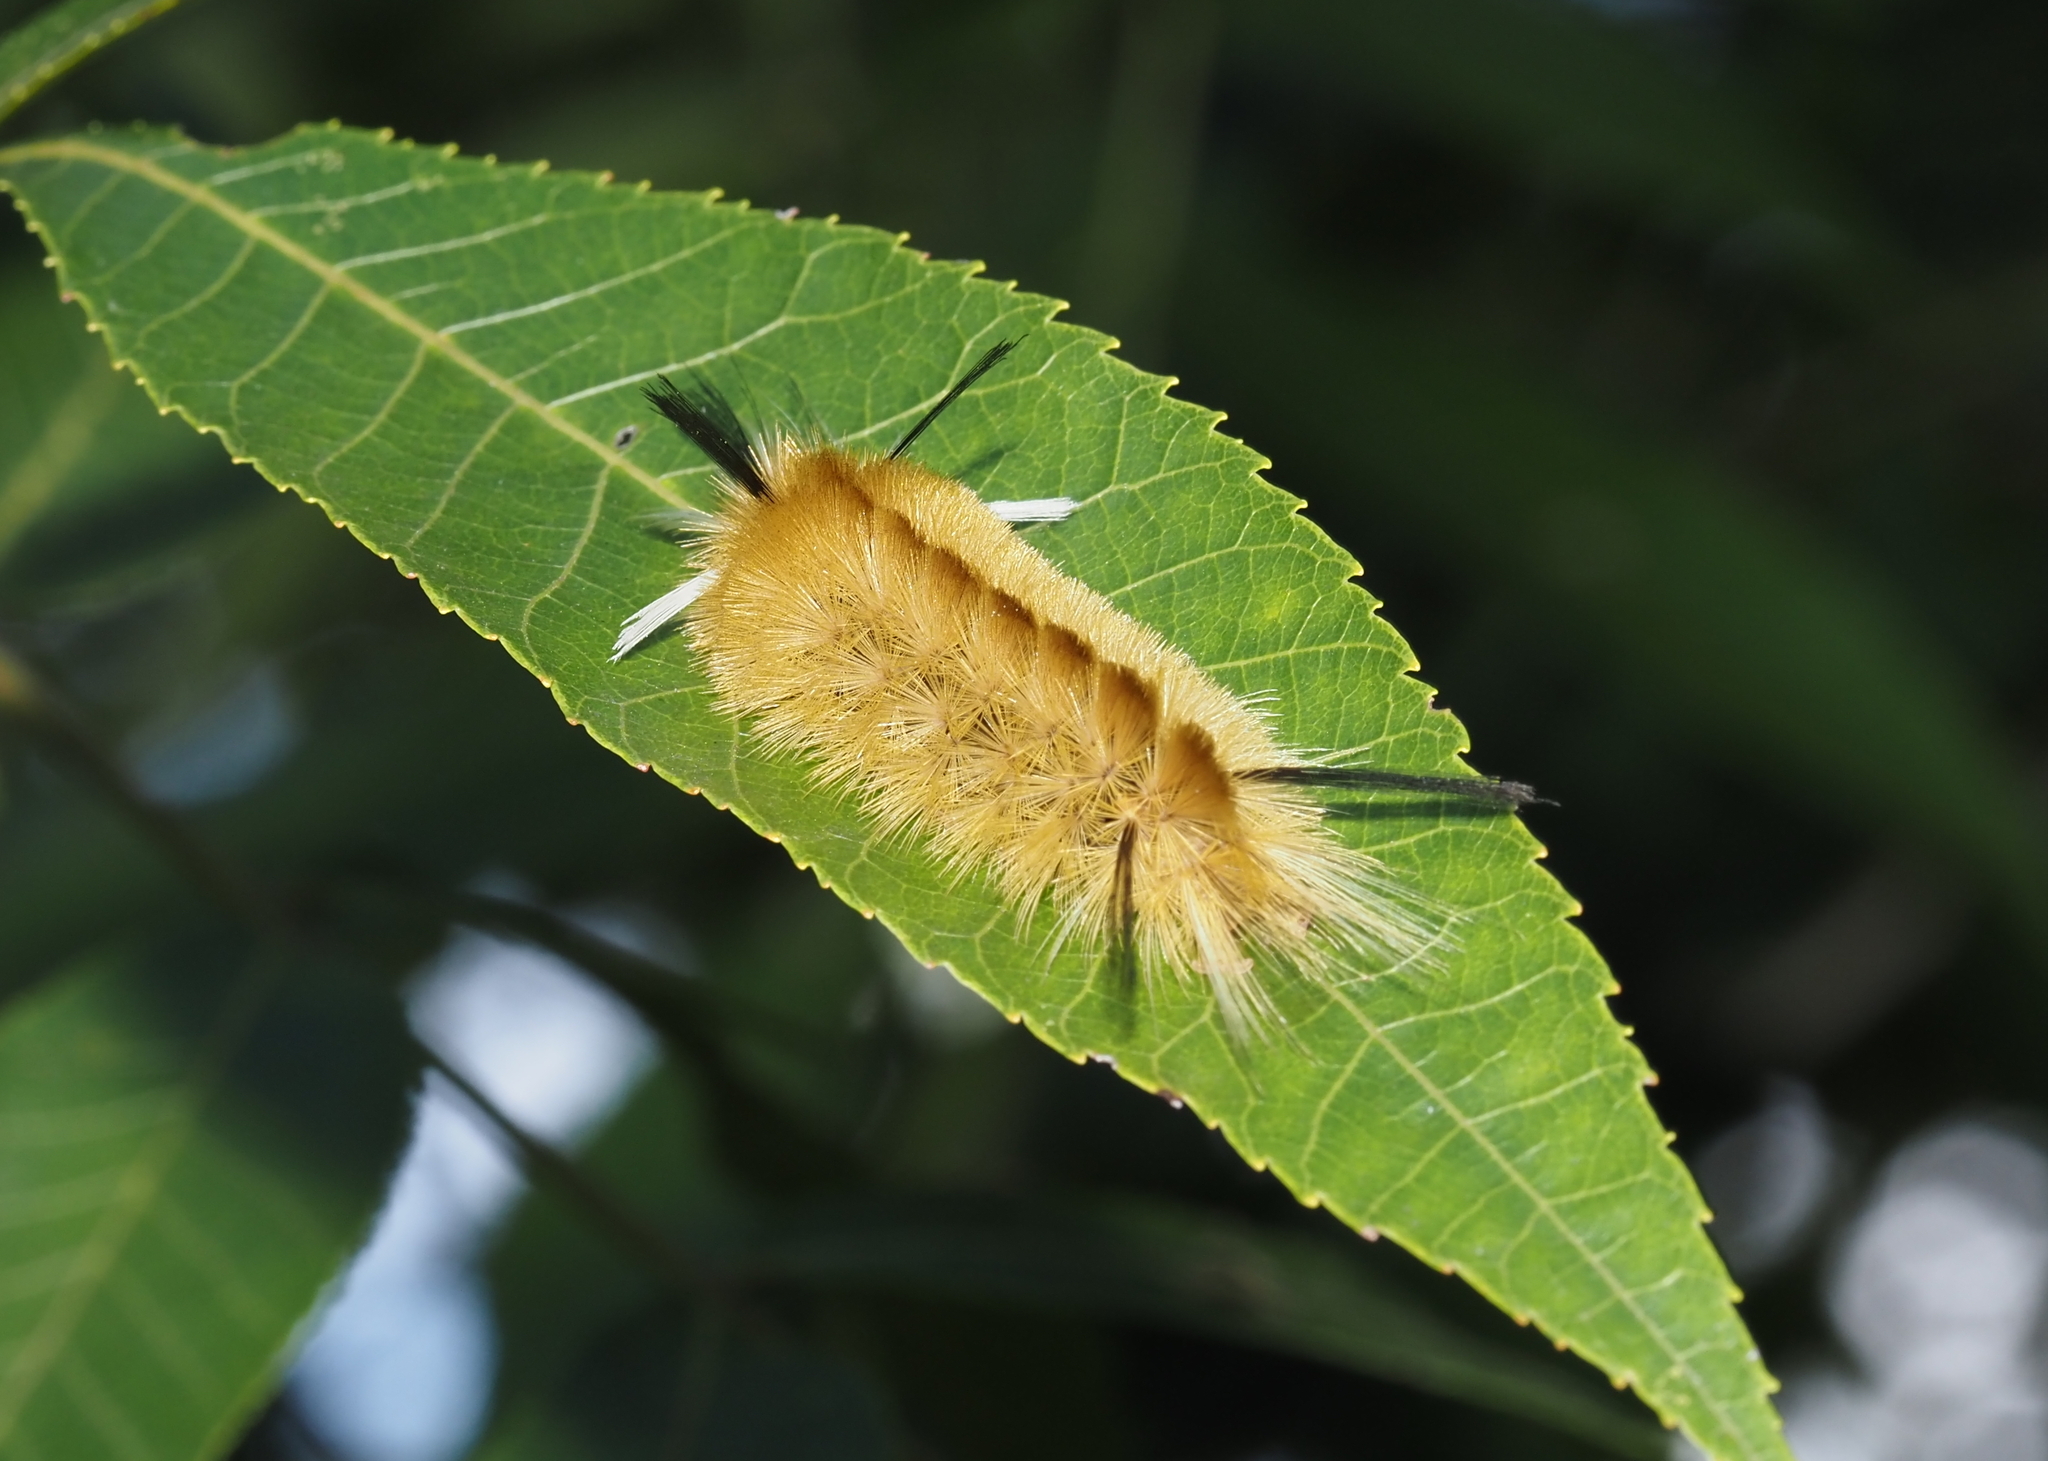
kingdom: Animalia
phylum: Arthropoda
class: Insecta
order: Lepidoptera
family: Erebidae
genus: Halysidota
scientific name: Halysidota tessellaris
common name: Banded tussock moth
